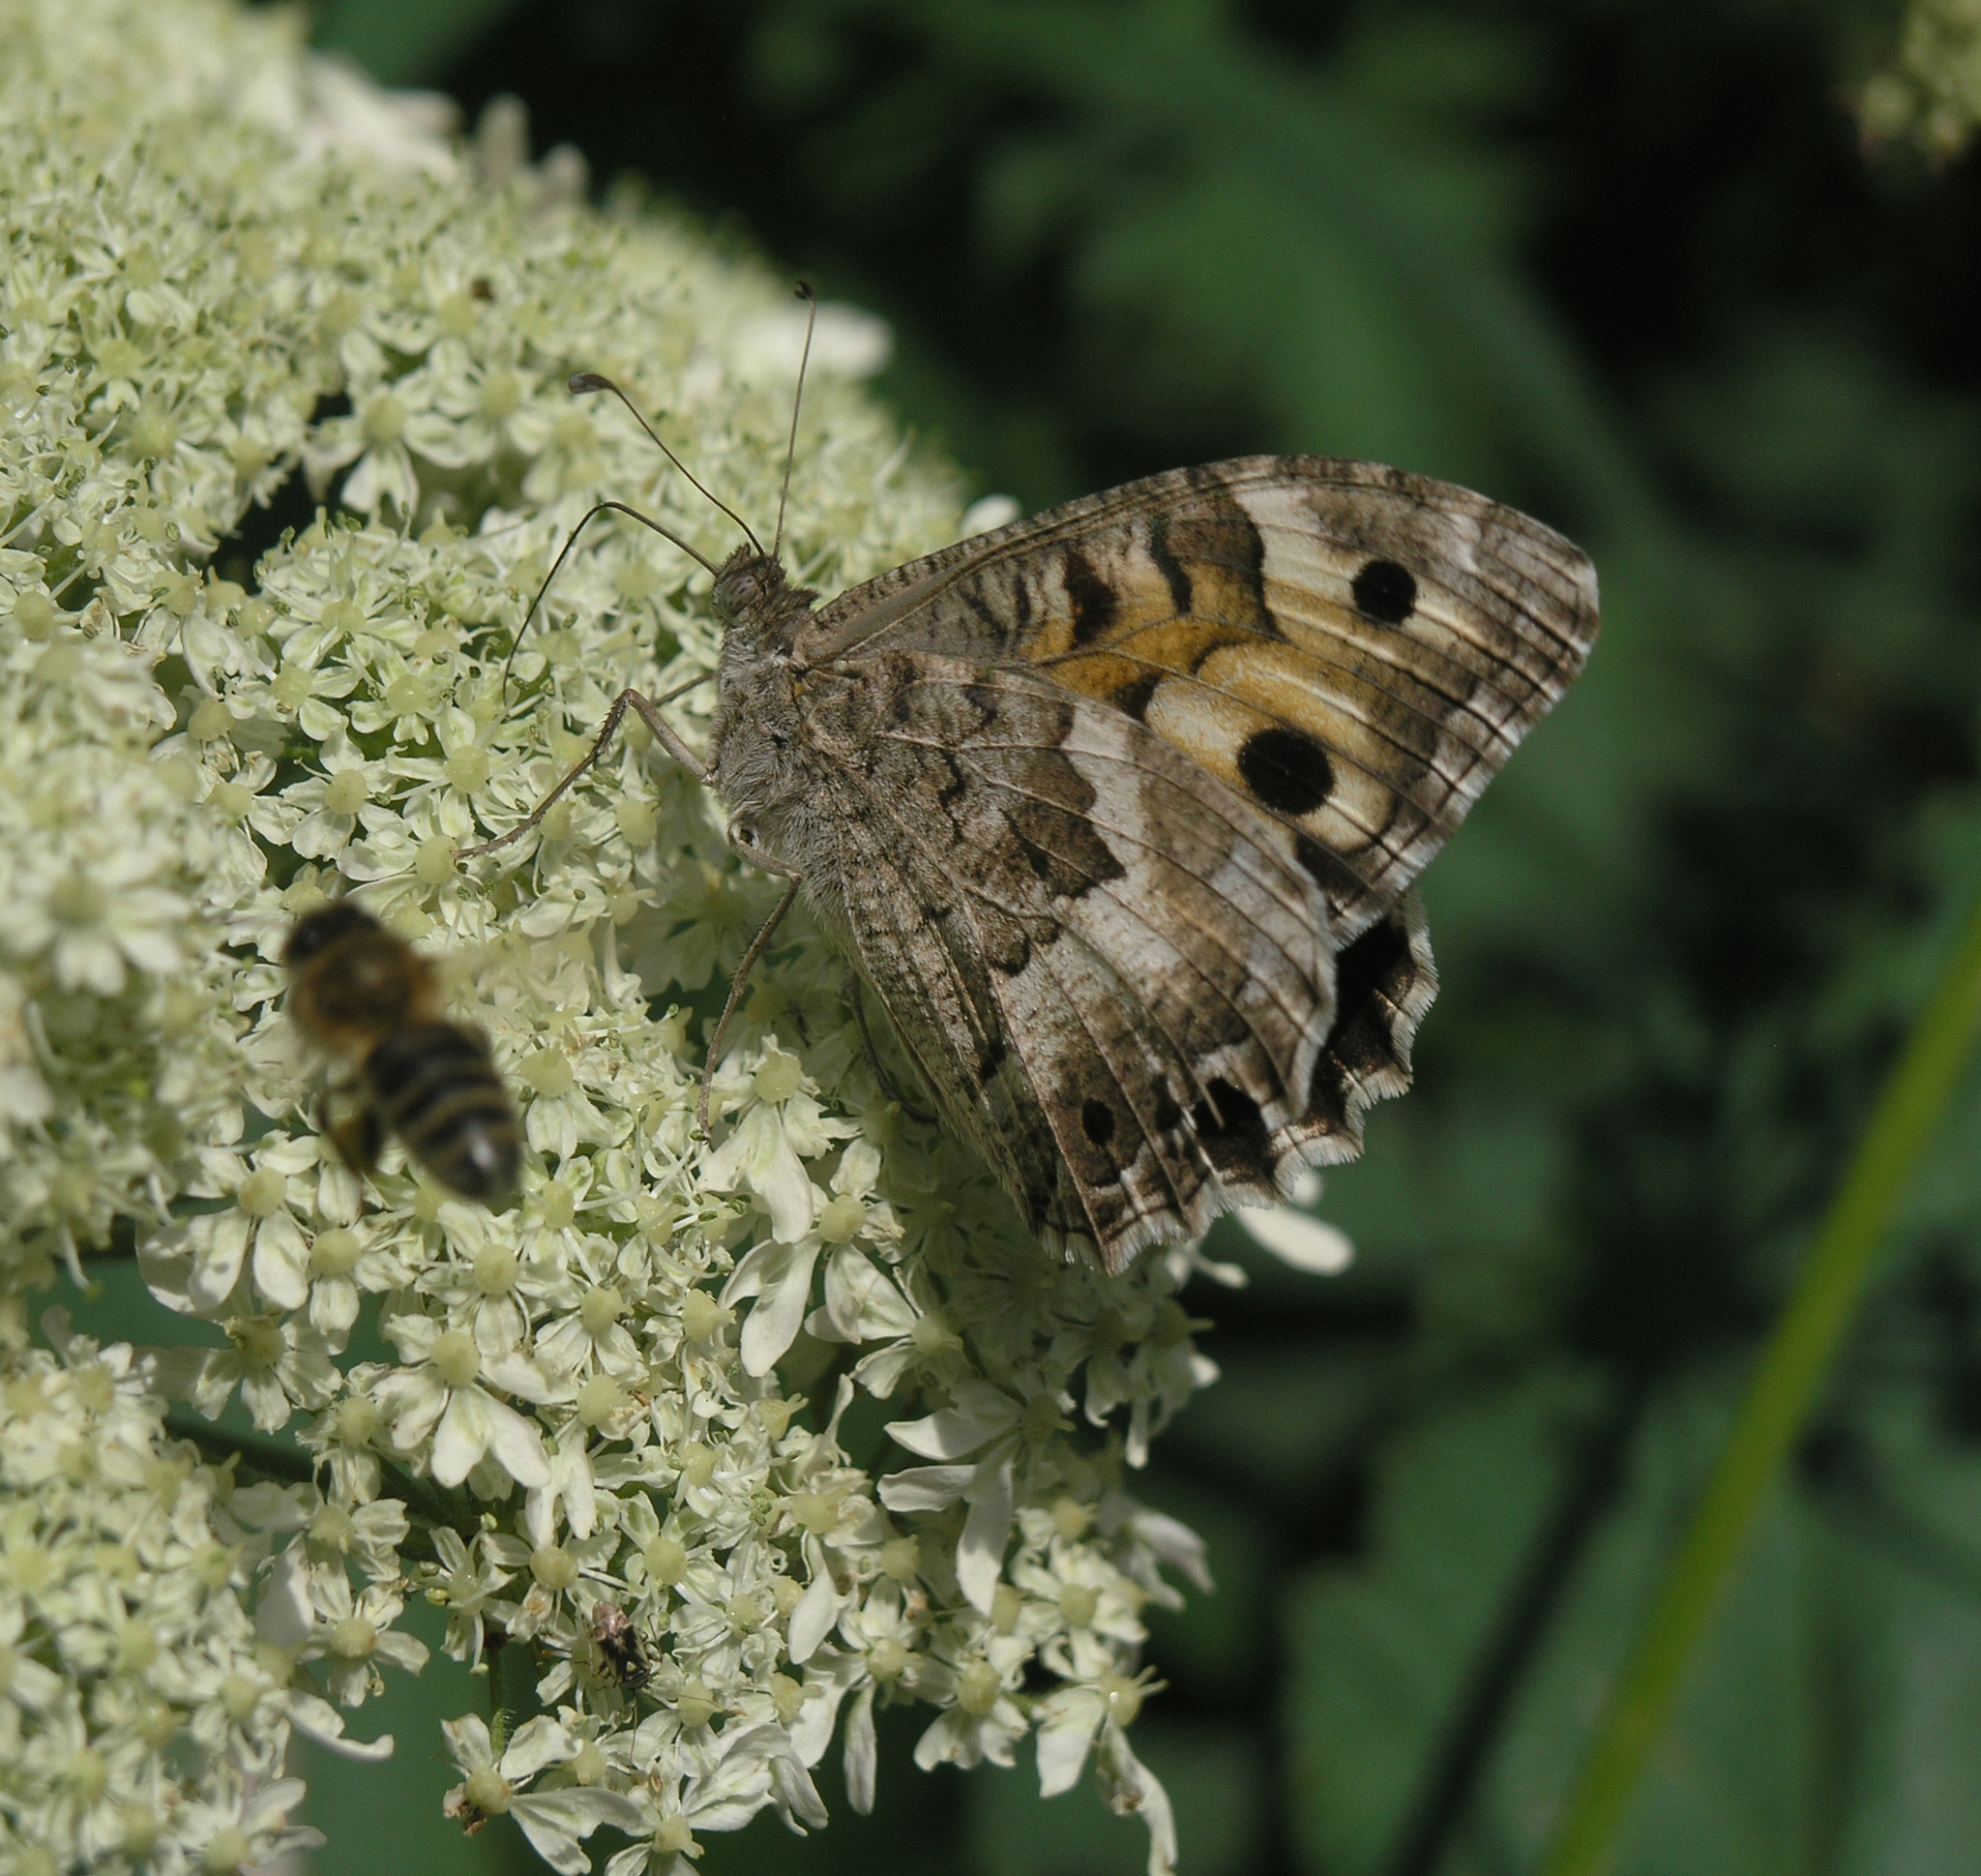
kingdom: Animalia
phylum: Arthropoda
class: Insecta
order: Lepidoptera
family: Nymphalidae
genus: Satyrus
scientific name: Satyrus Chazara enervata
